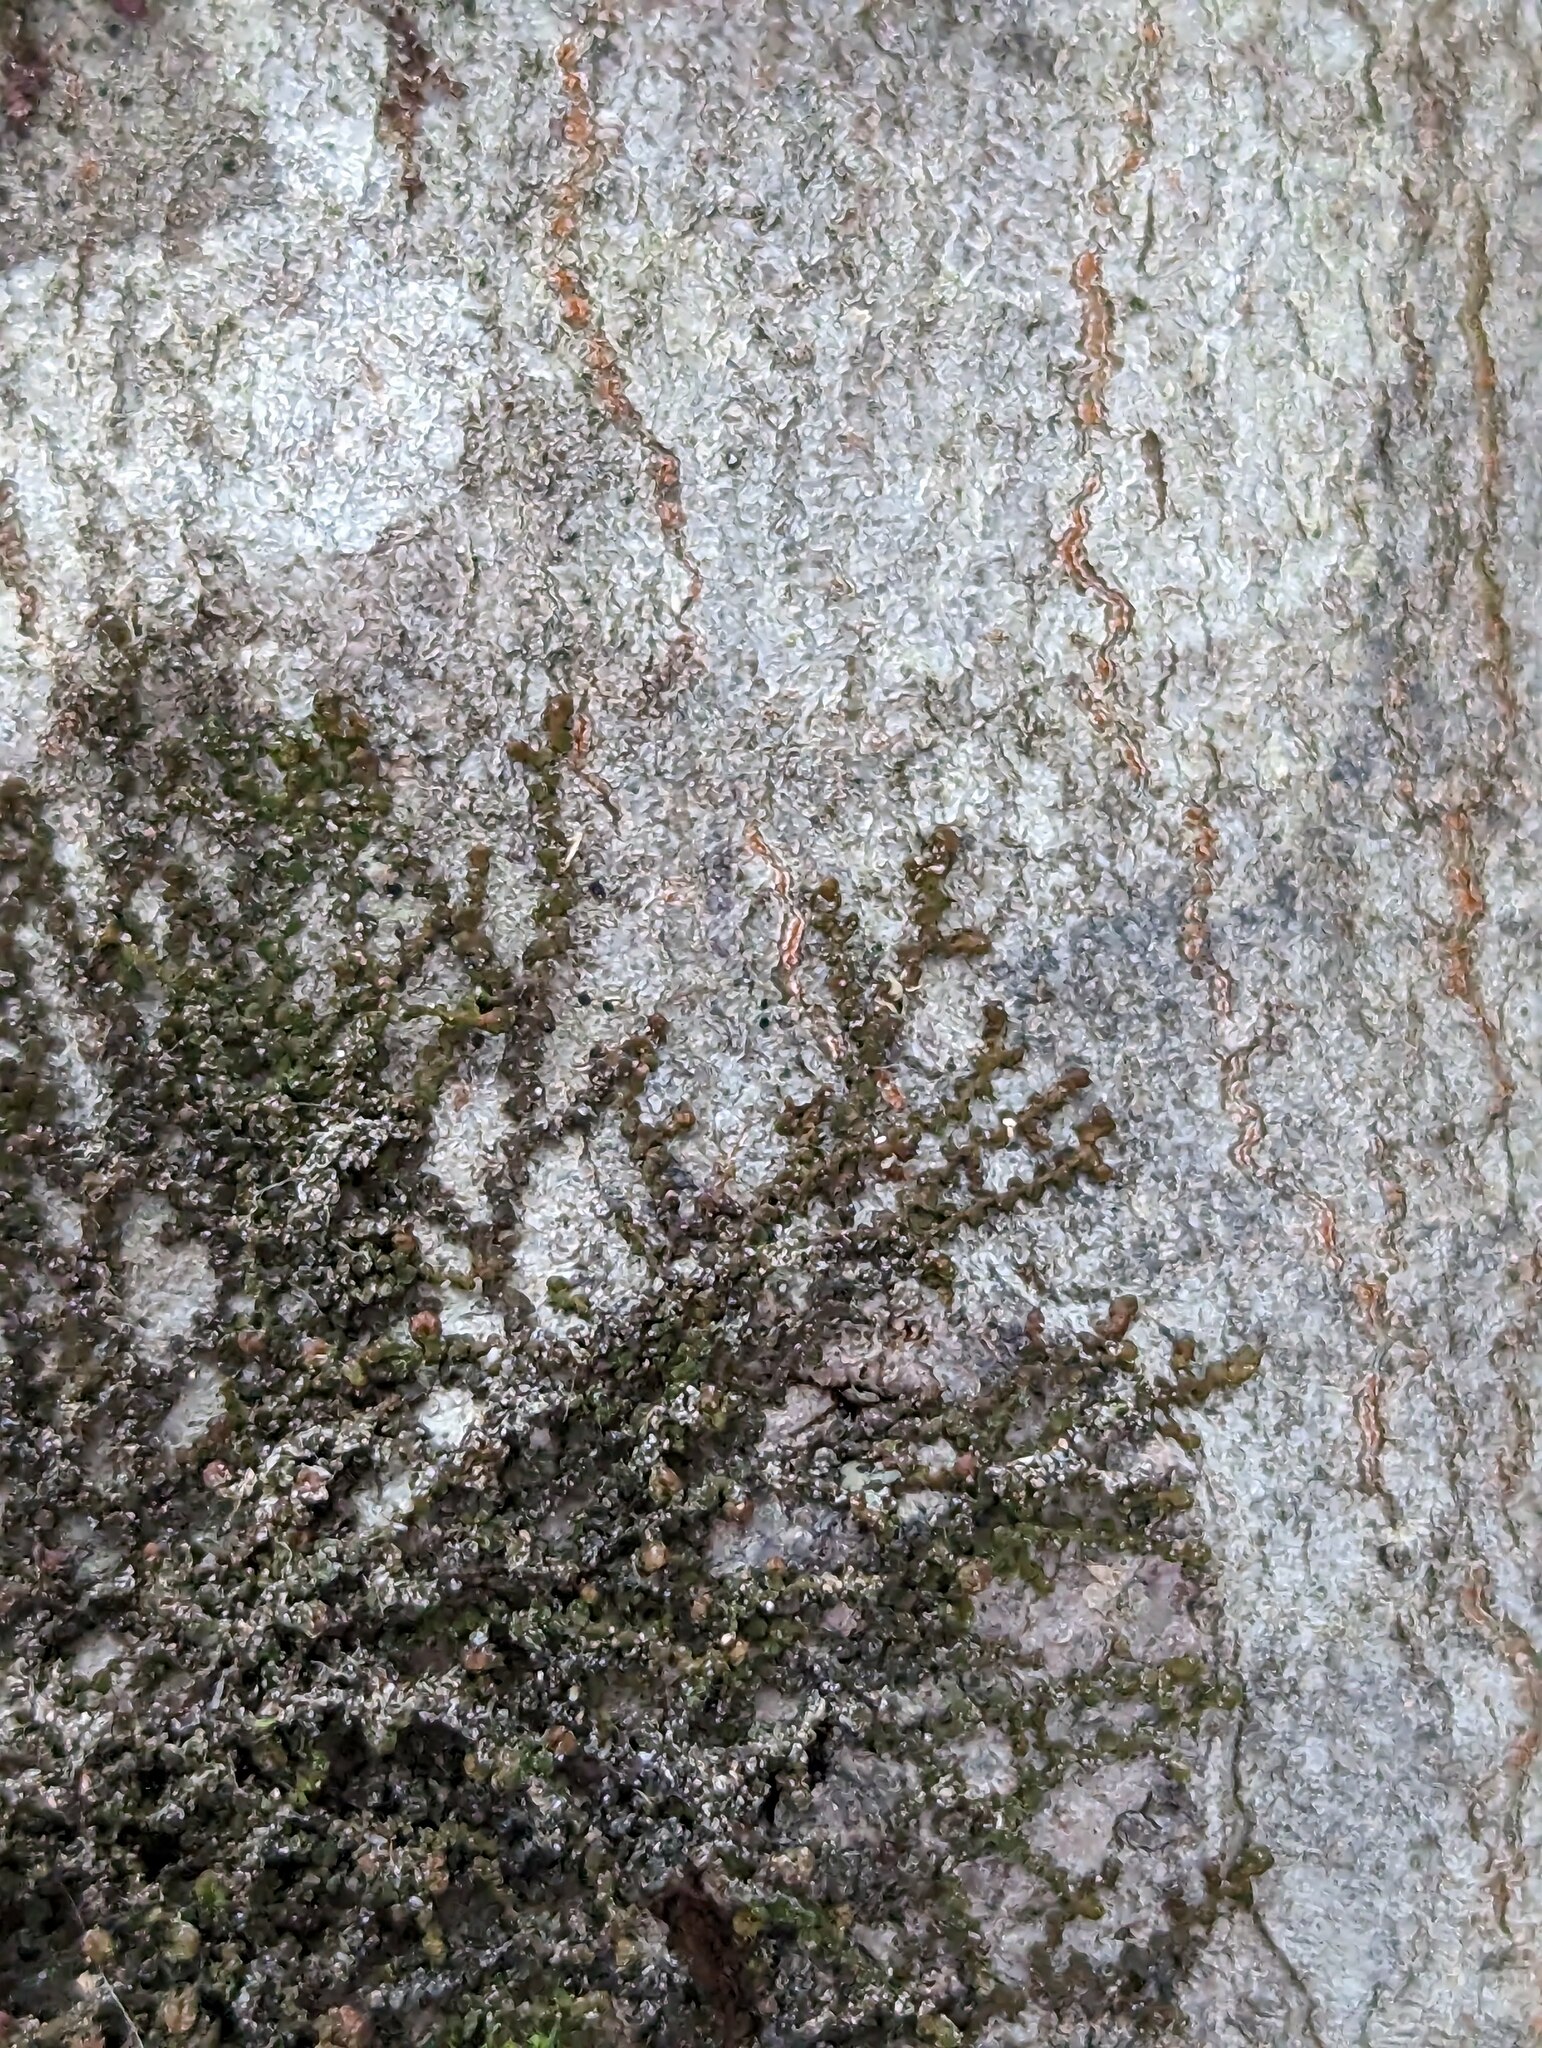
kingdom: Plantae
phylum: Marchantiophyta
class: Jungermanniopsida
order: Porellales
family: Frullaniaceae
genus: Frullania
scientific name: Frullania eboracensis
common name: New york scalewort
